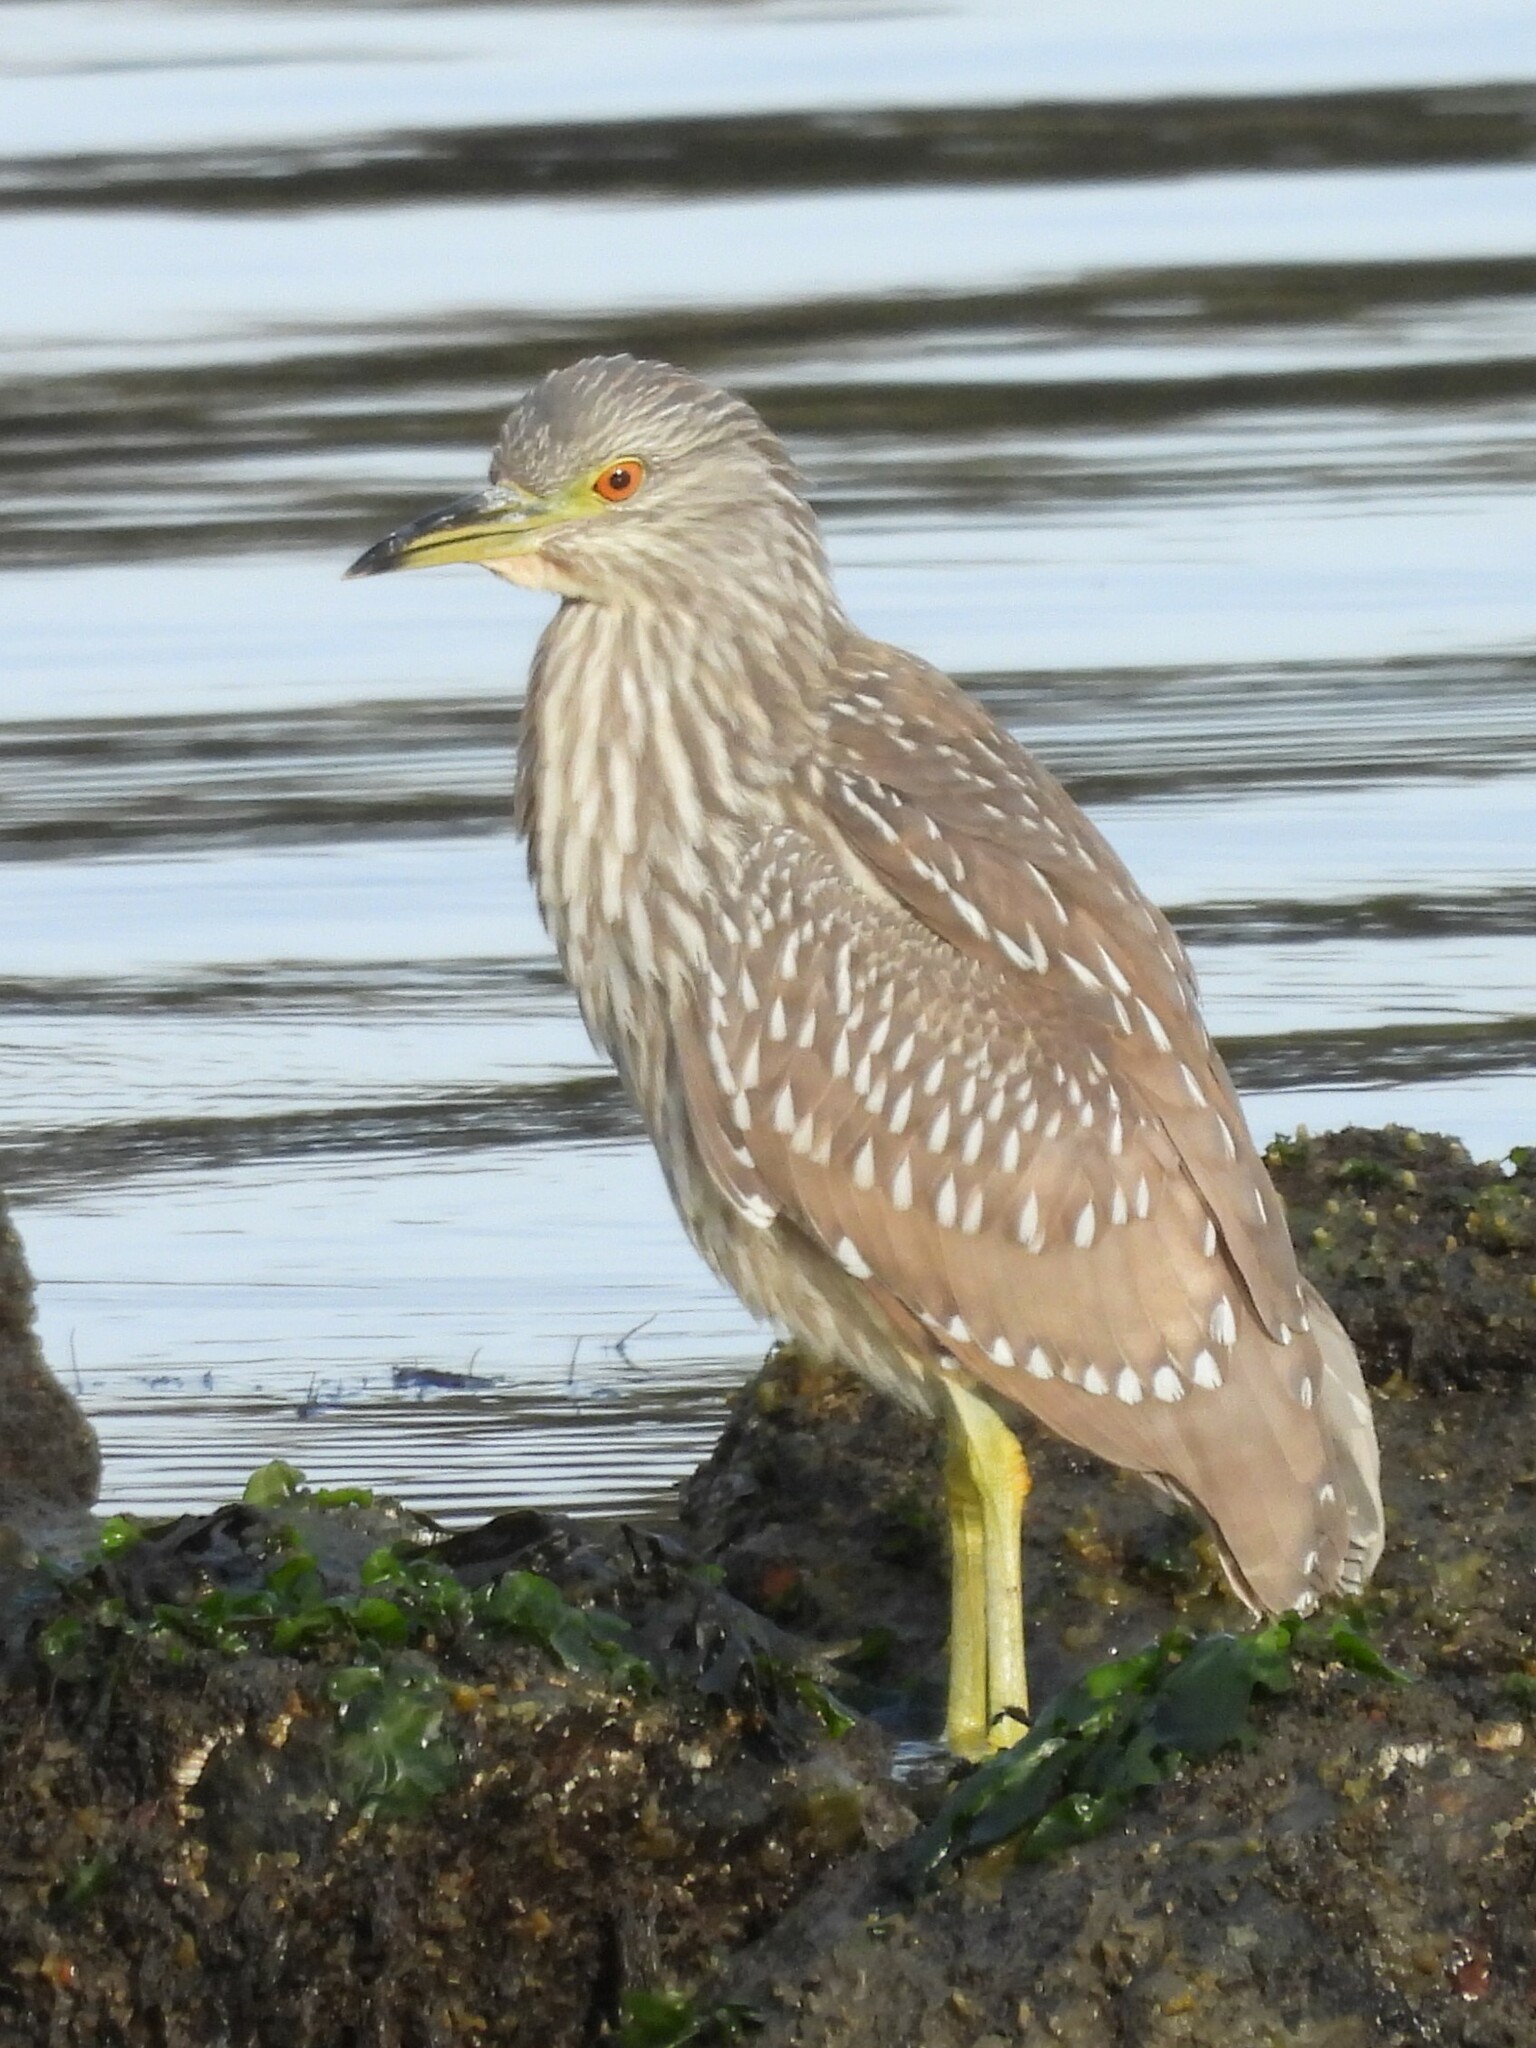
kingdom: Animalia
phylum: Chordata
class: Aves
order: Pelecaniformes
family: Ardeidae
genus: Nycticorax
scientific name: Nycticorax nycticorax
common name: Black-crowned night heron
